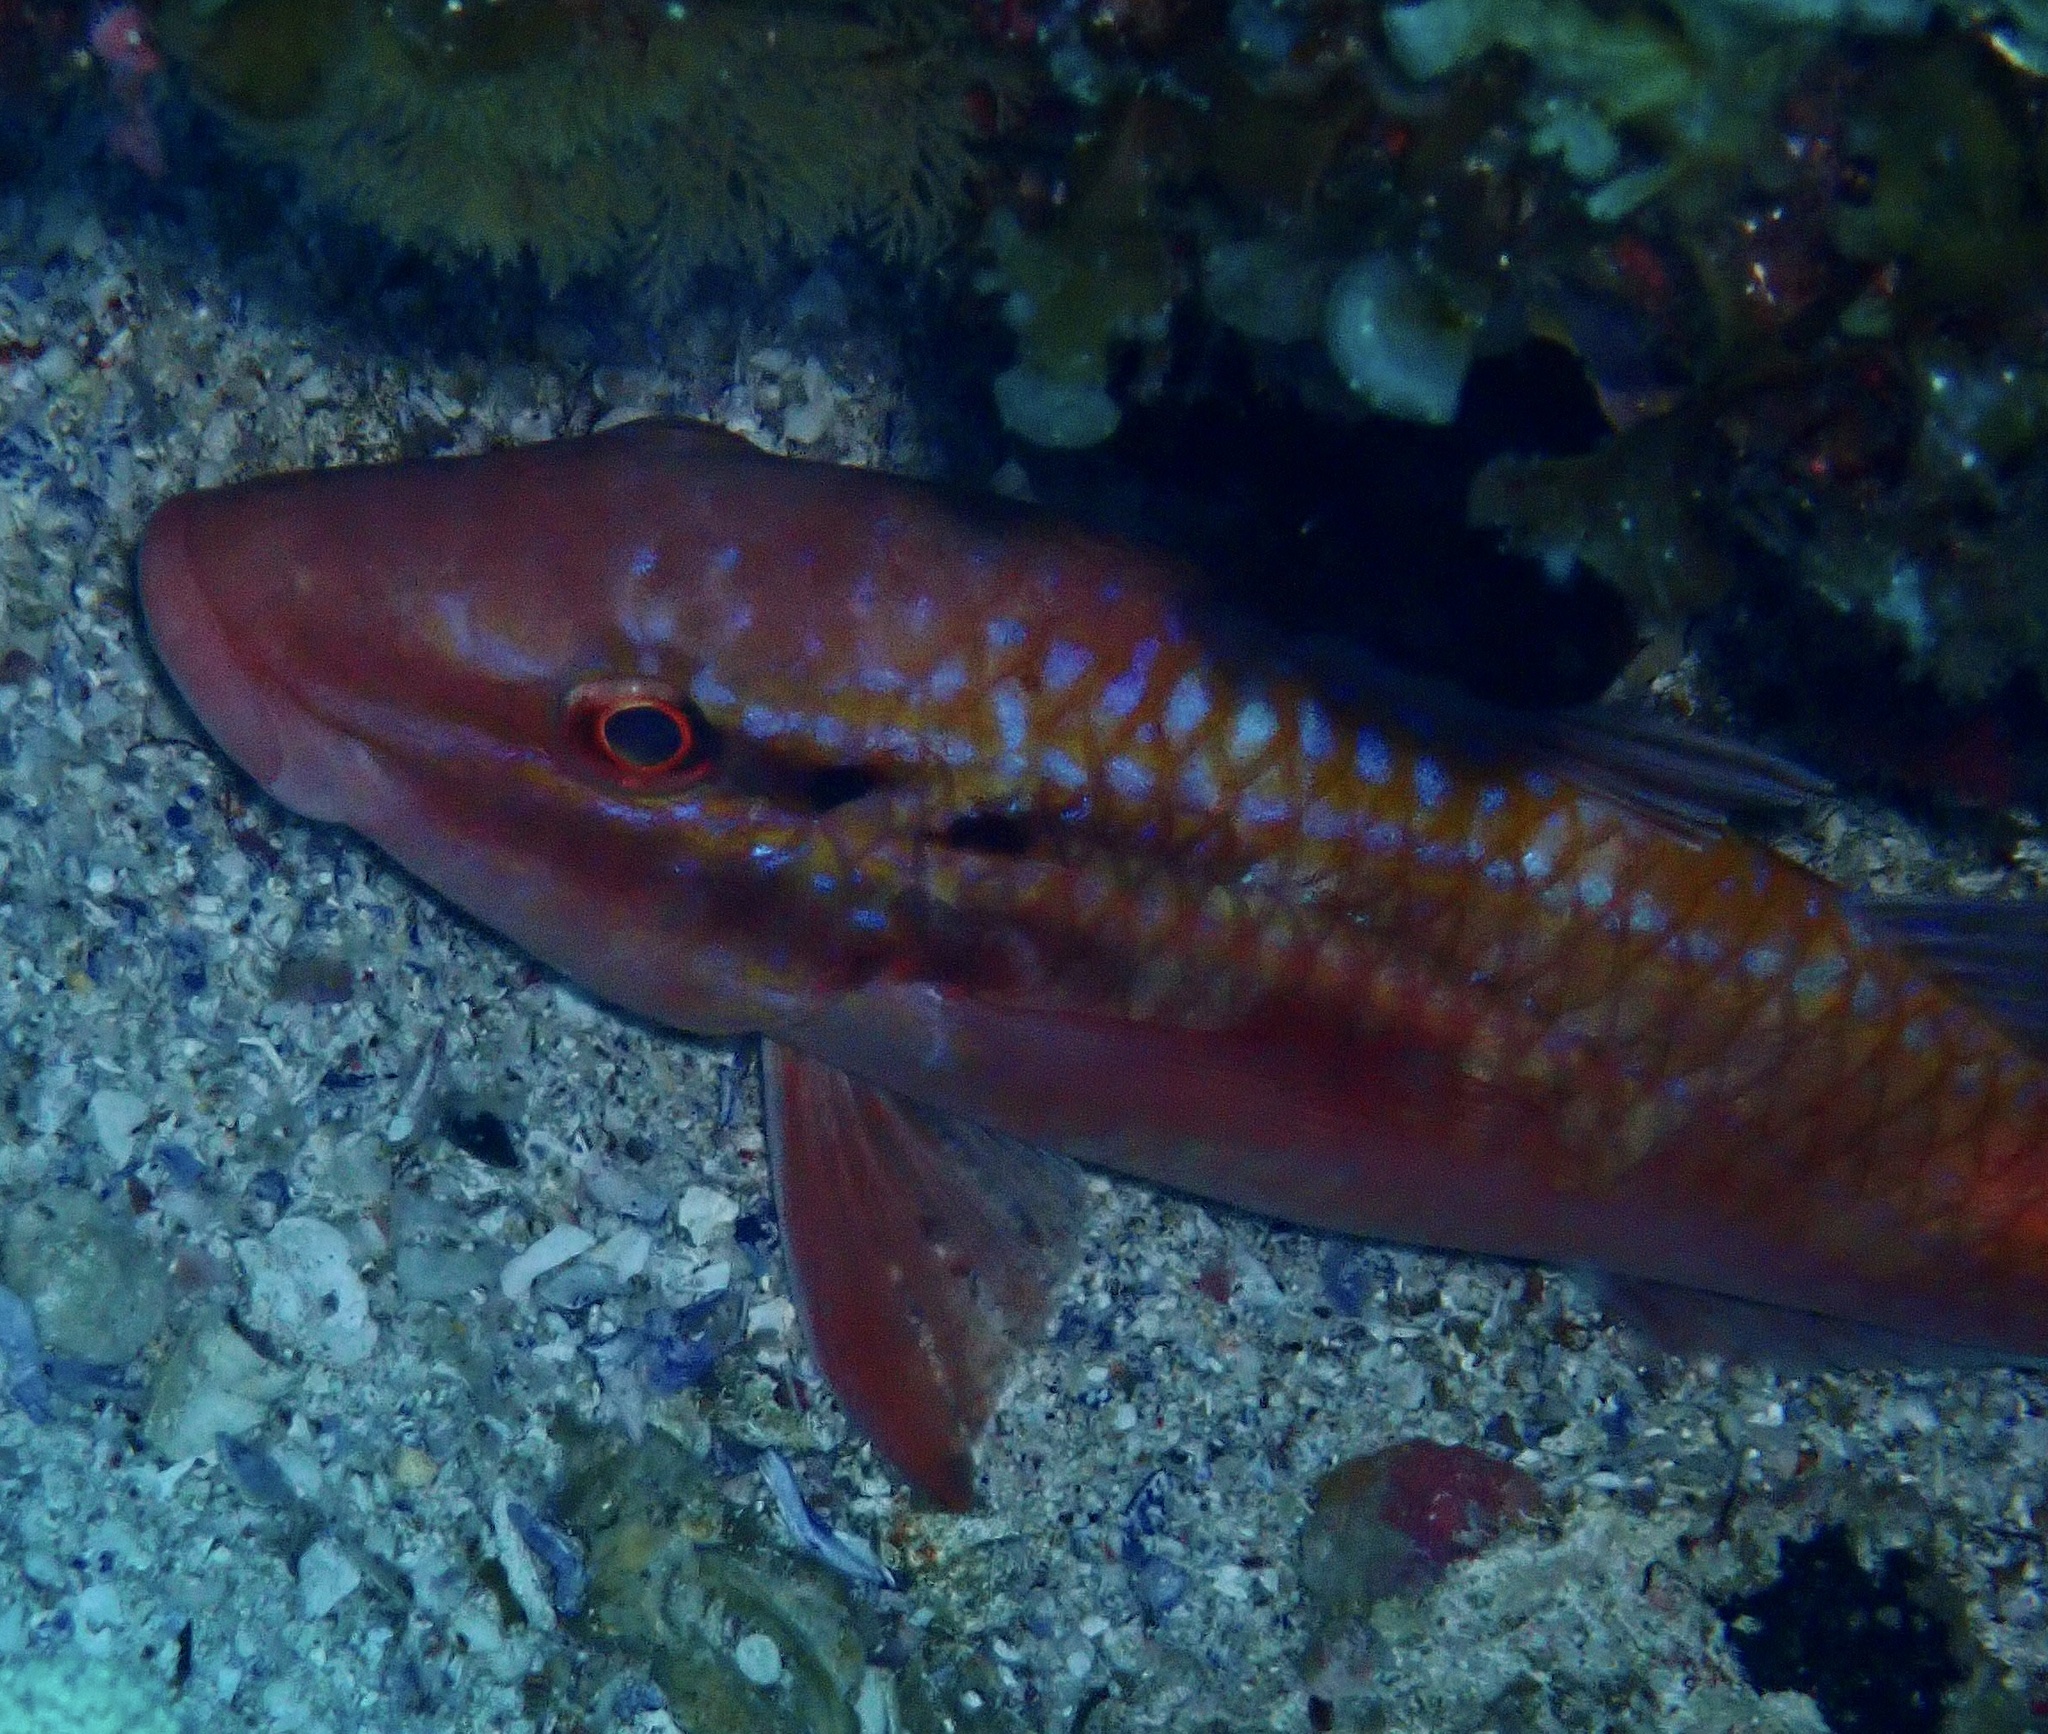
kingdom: Animalia
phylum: Chordata
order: Perciformes
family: Mullidae
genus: Parupeneus
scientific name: Parupeneus spilurus
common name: Blackspot goatfish
